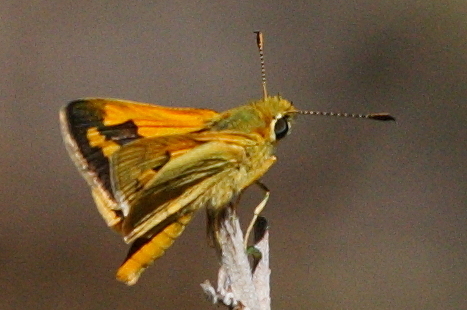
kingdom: Animalia
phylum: Arthropoda
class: Insecta
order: Lepidoptera
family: Hesperiidae
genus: Ocybadistes
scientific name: Ocybadistes walkeri
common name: Yellow-banded dart
